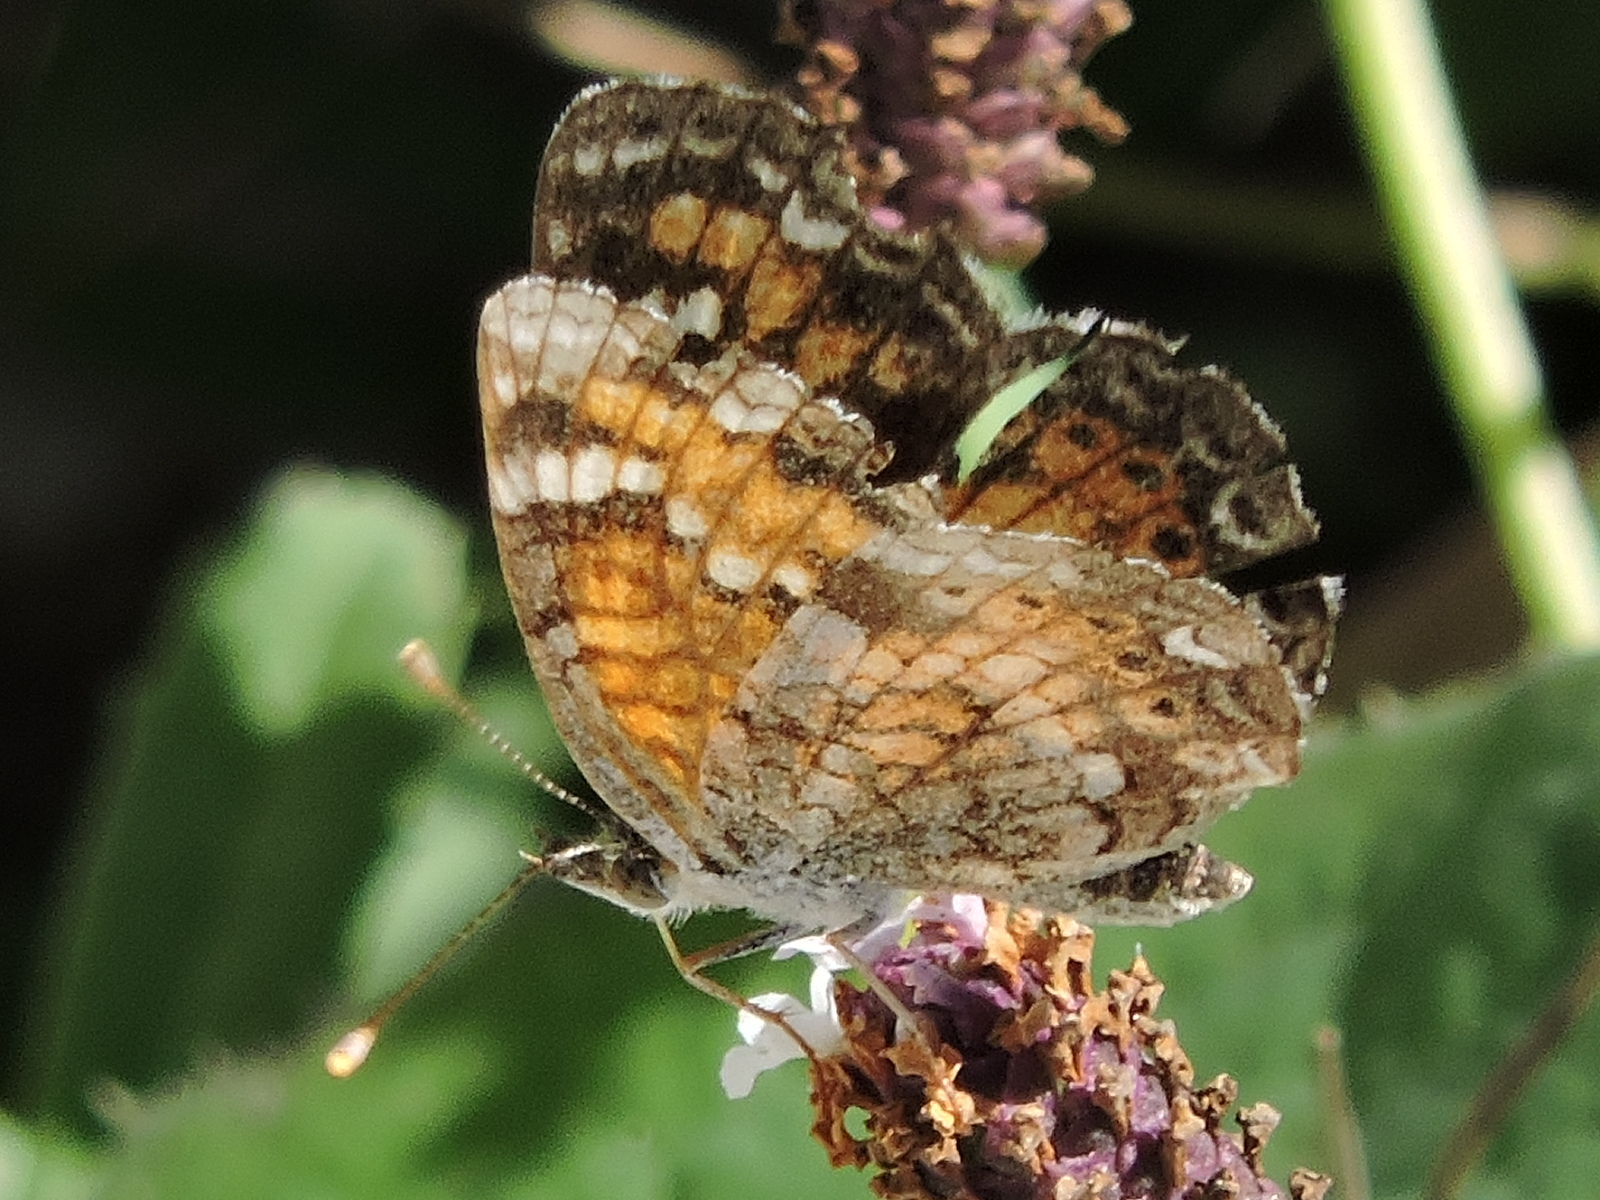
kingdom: Animalia
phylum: Arthropoda
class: Insecta
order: Lepidoptera
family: Nymphalidae
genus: Phyciodes
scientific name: Phyciodes phaon
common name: Phaon crescent
